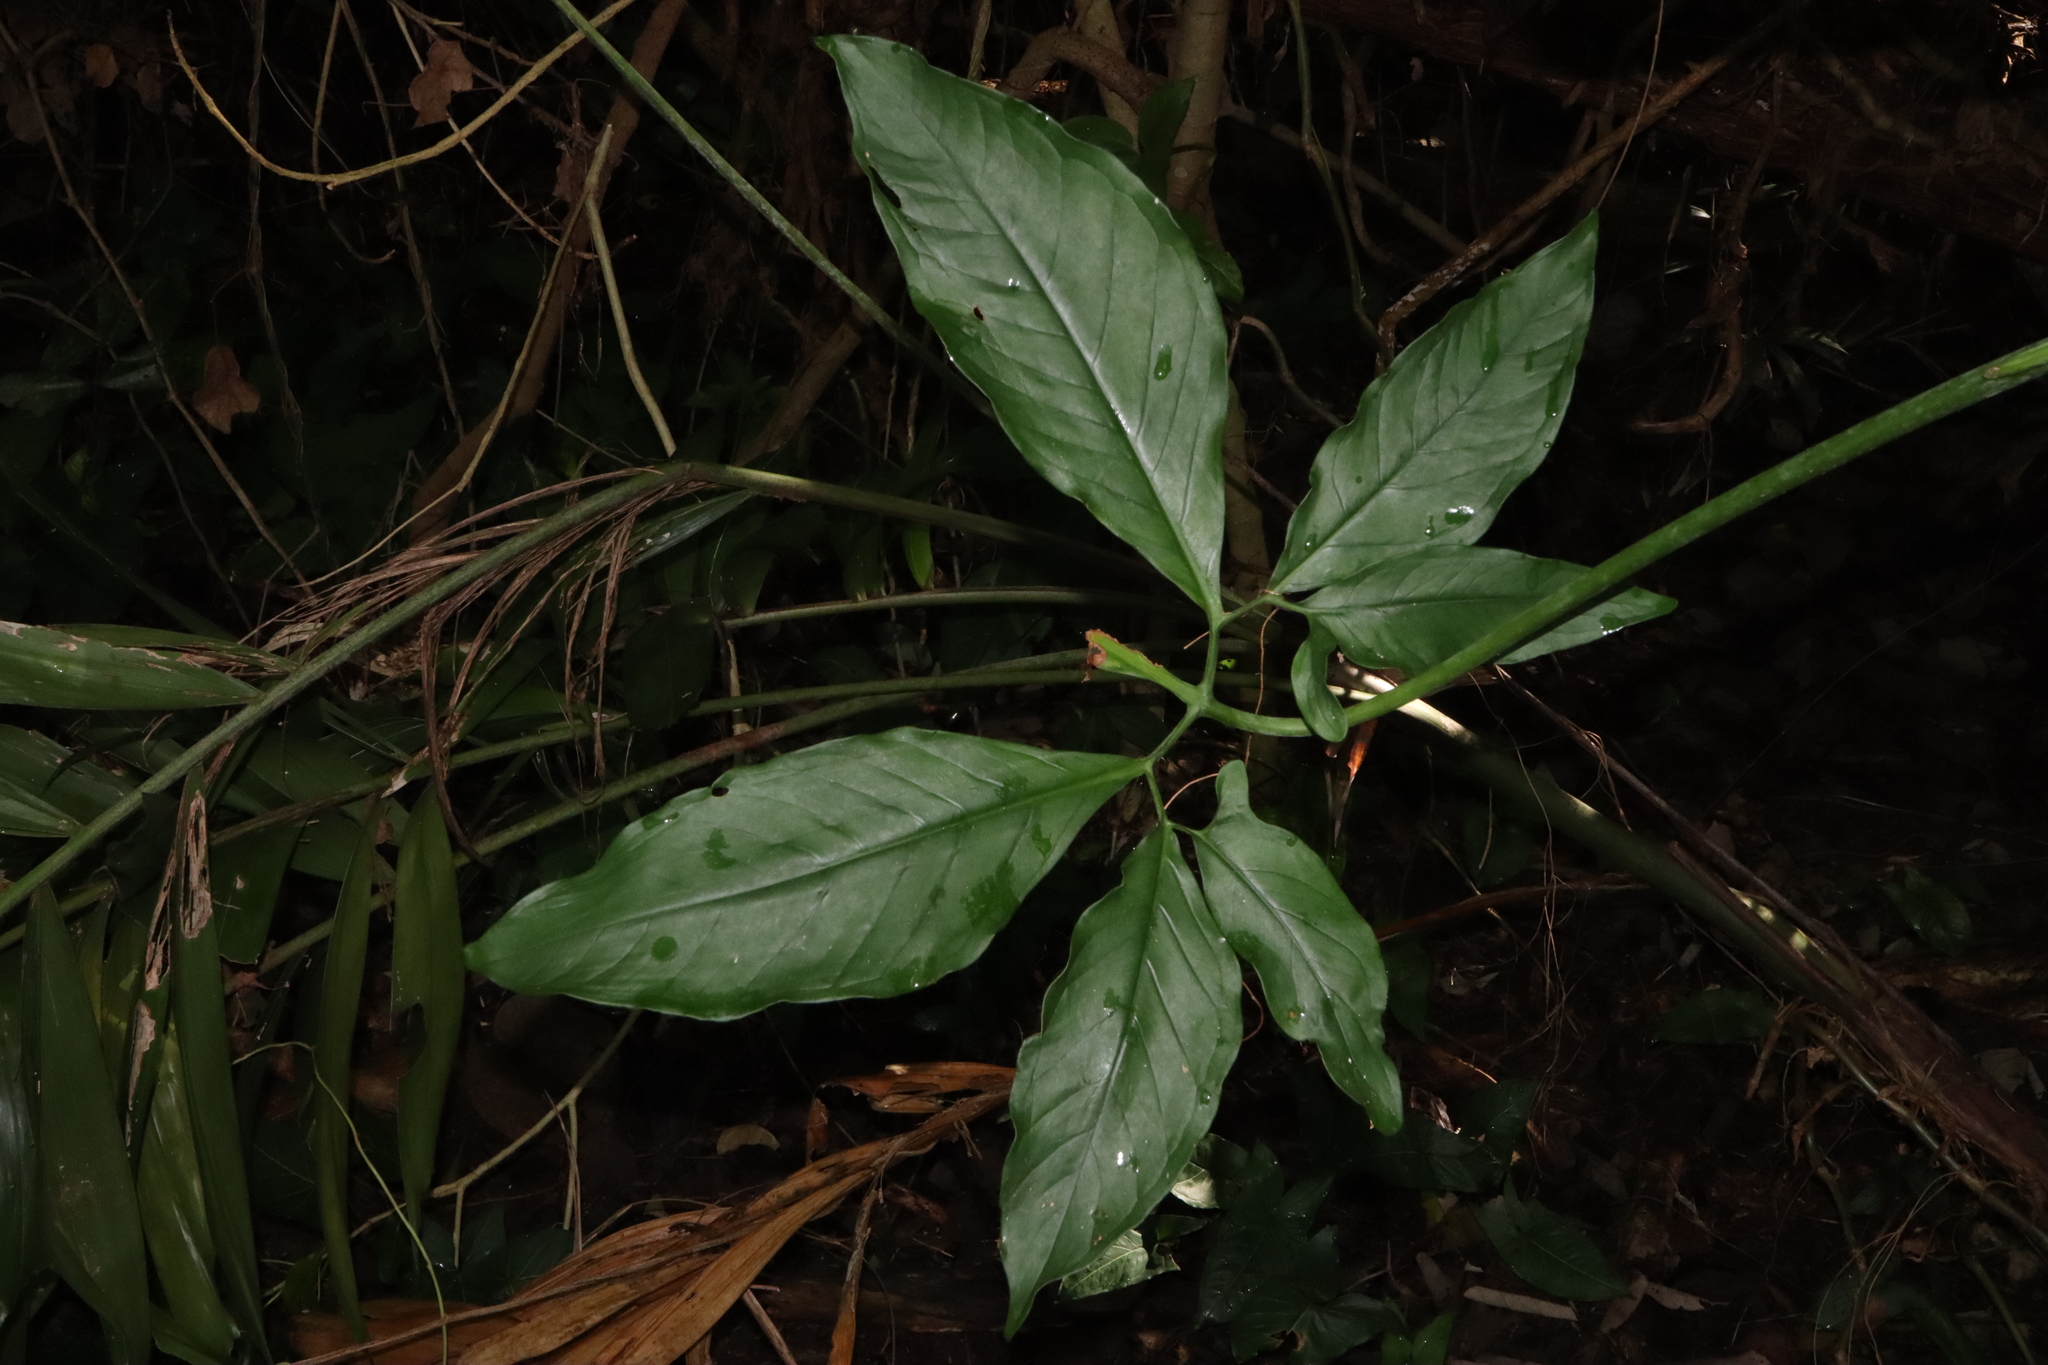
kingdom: Plantae
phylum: Tracheophyta
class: Liliopsida
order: Alismatales
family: Araceae
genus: Syngonium
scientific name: Syngonium podophyllum
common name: American evergreen
